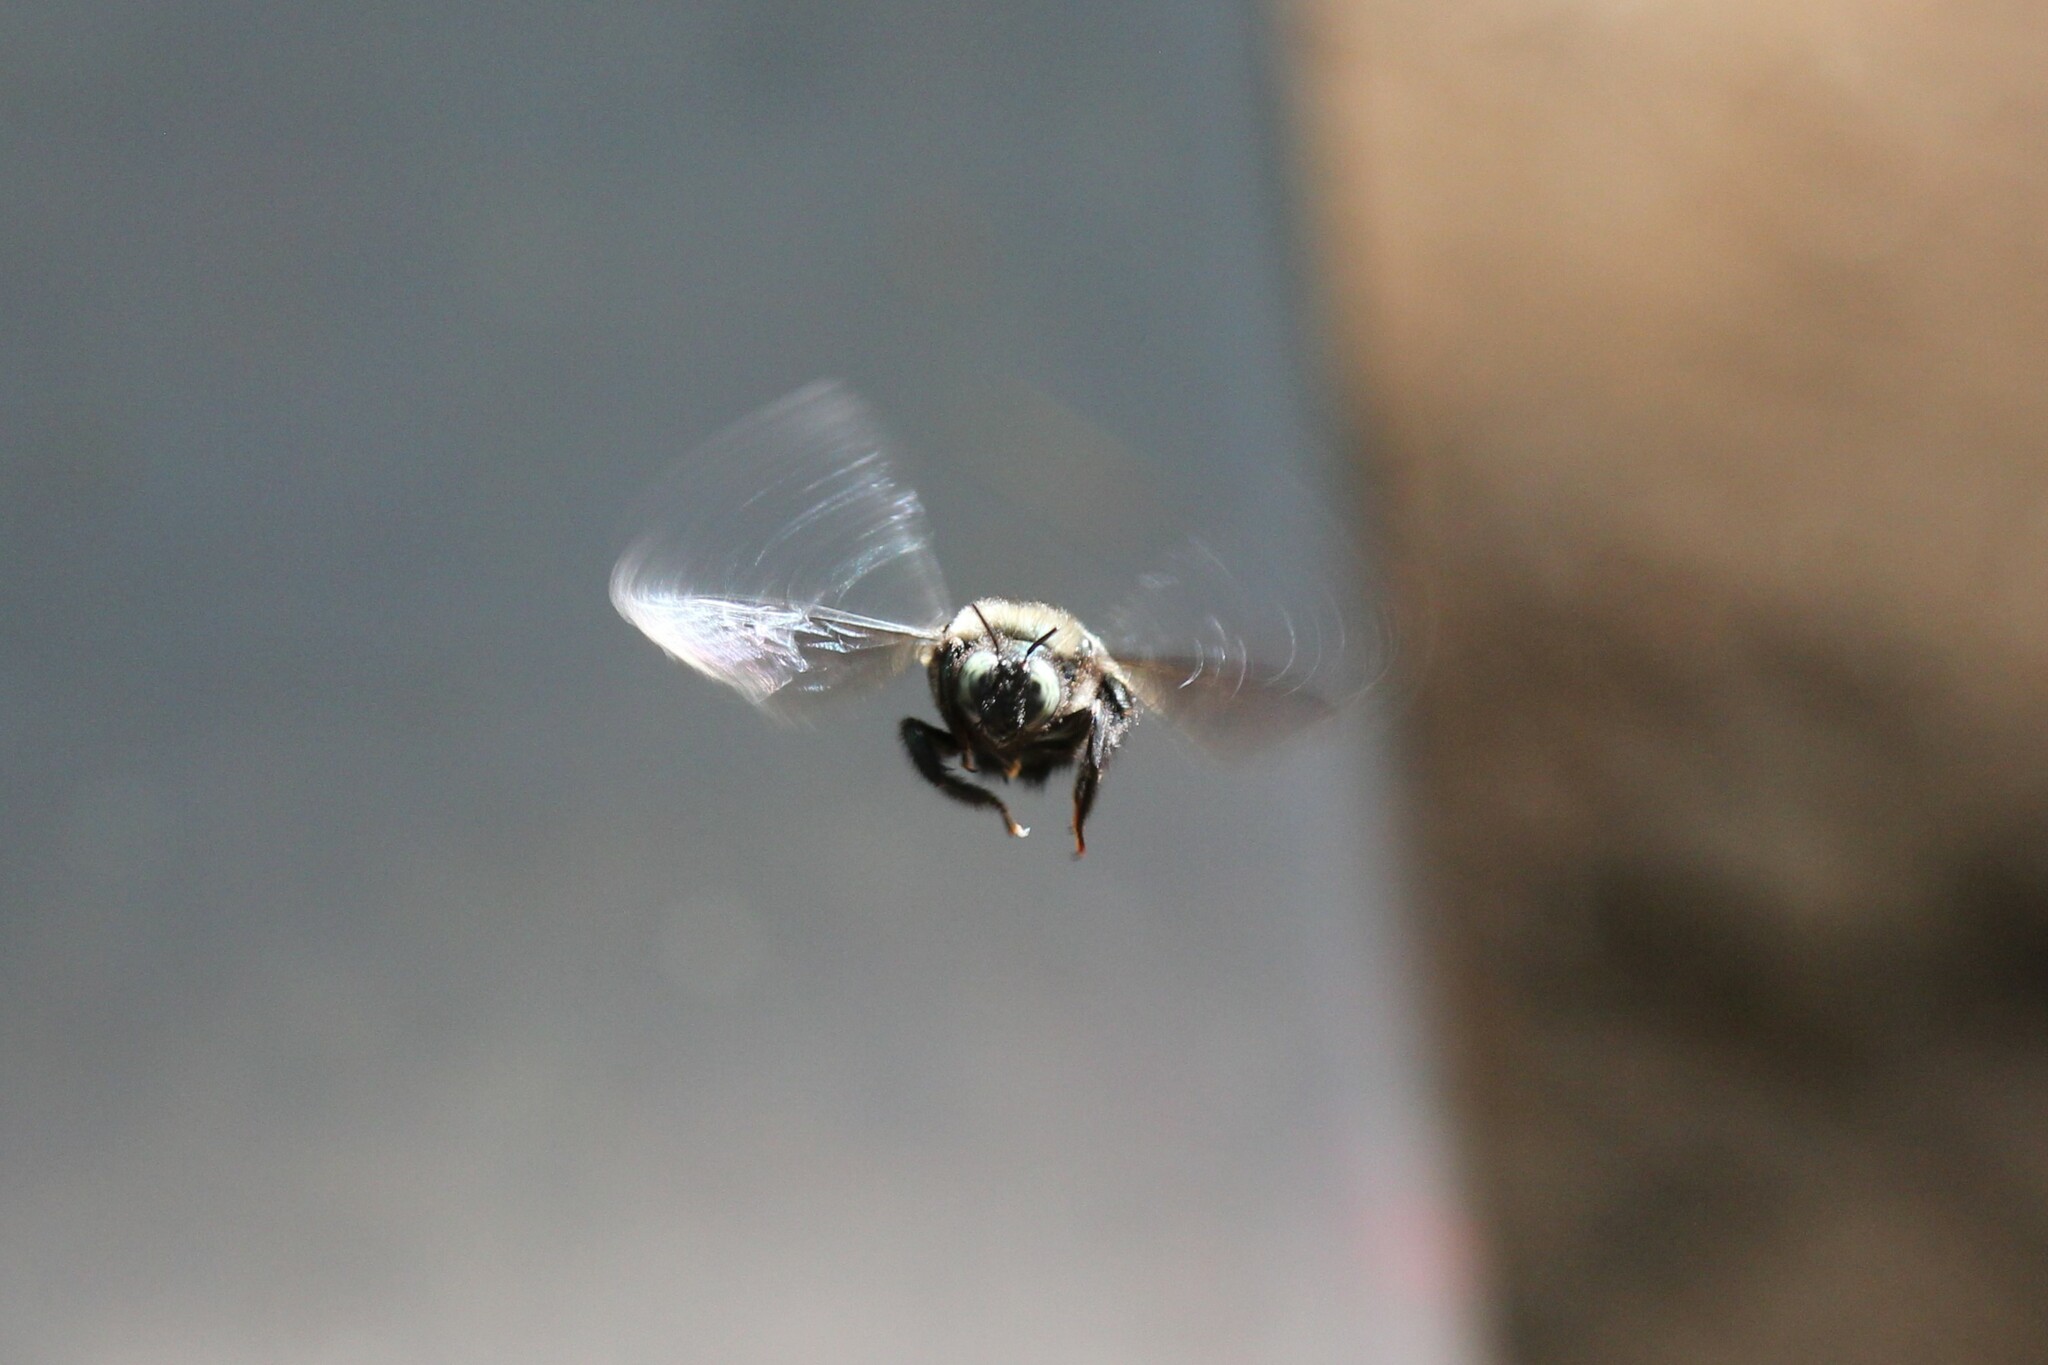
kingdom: Animalia
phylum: Arthropoda
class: Insecta
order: Hymenoptera
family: Apidae
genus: Xylocopa
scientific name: Xylocopa californica
